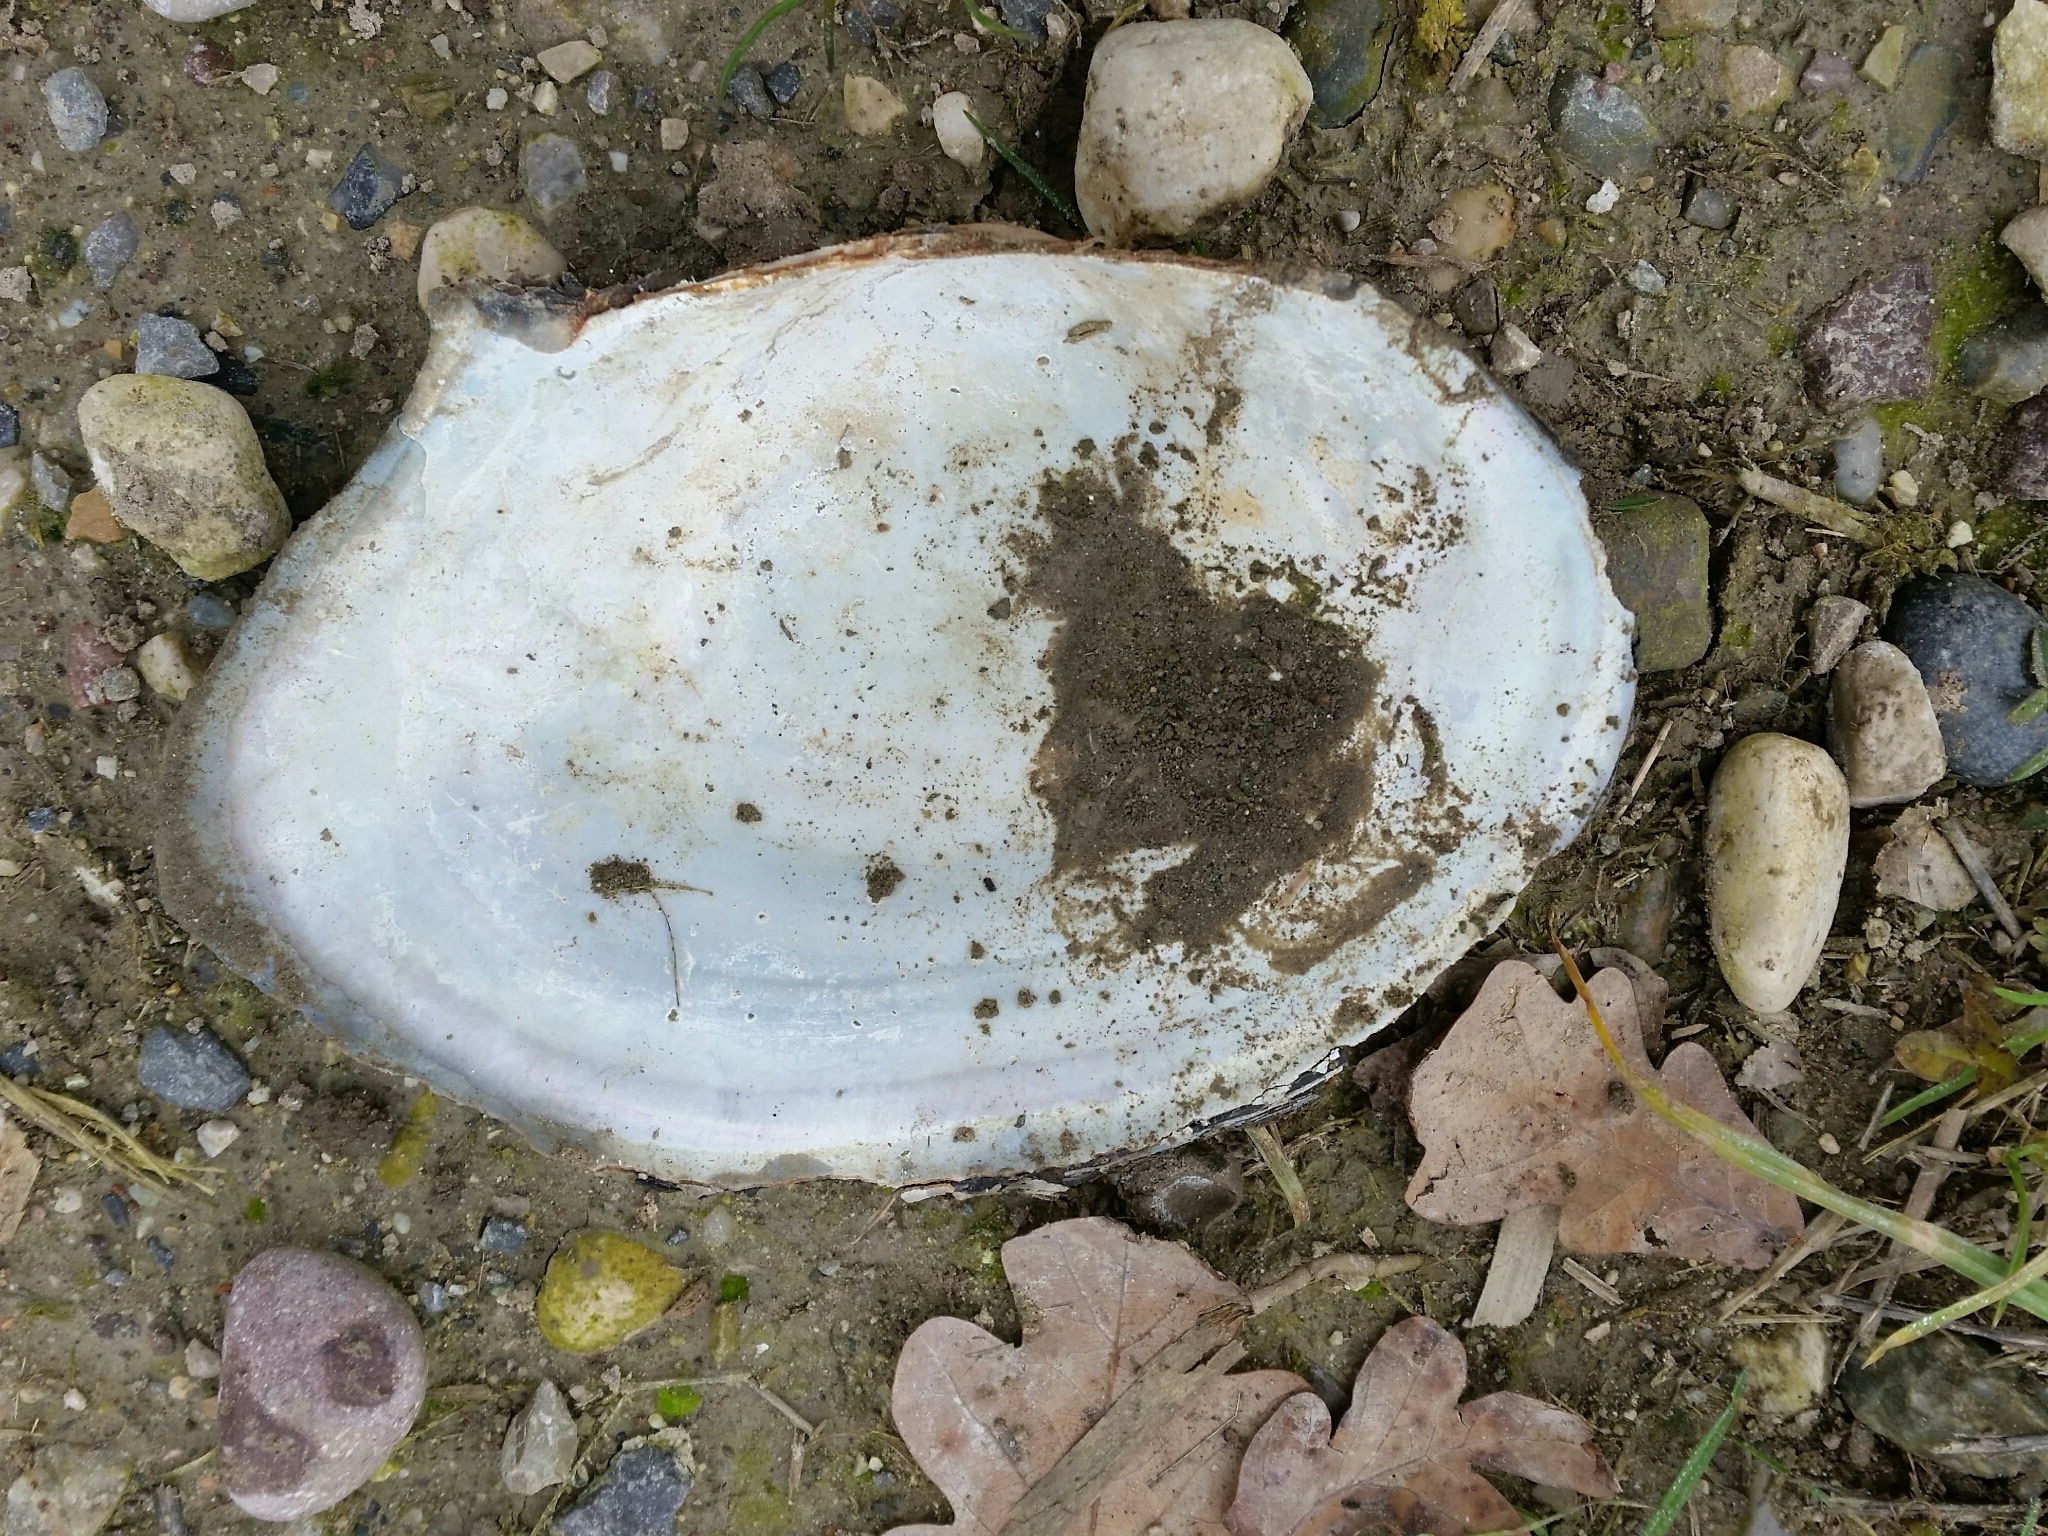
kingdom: Animalia
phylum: Mollusca
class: Bivalvia
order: Unionida
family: Unionidae
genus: Sinanodonta
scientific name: Sinanodonta woodiana
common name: Chinese pond mussel
